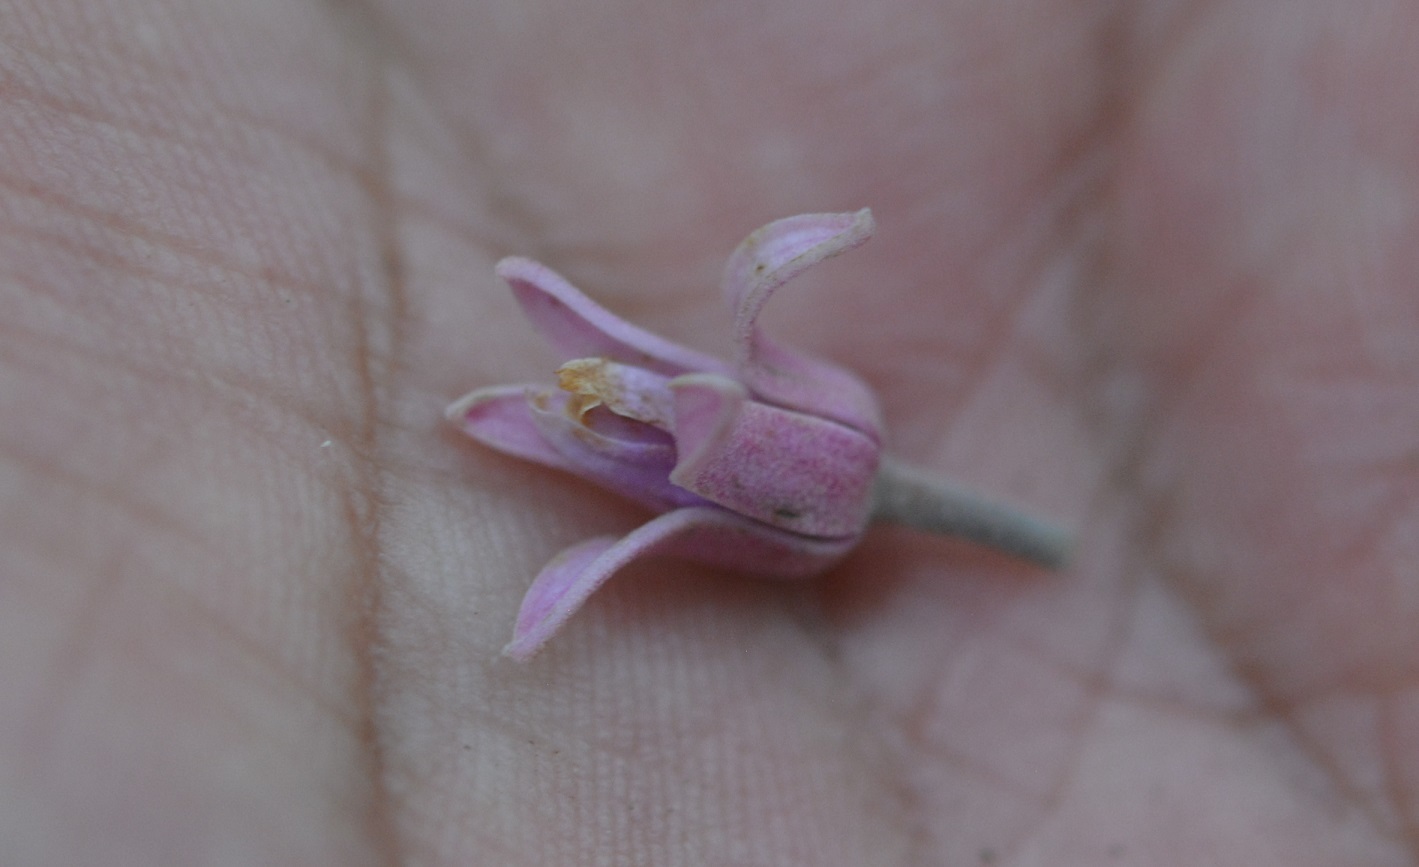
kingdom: Plantae
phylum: Tracheophyta
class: Magnoliopsida
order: Malvales
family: Malvaceae
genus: Trichospermum
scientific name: Trichospermum mexicanum
